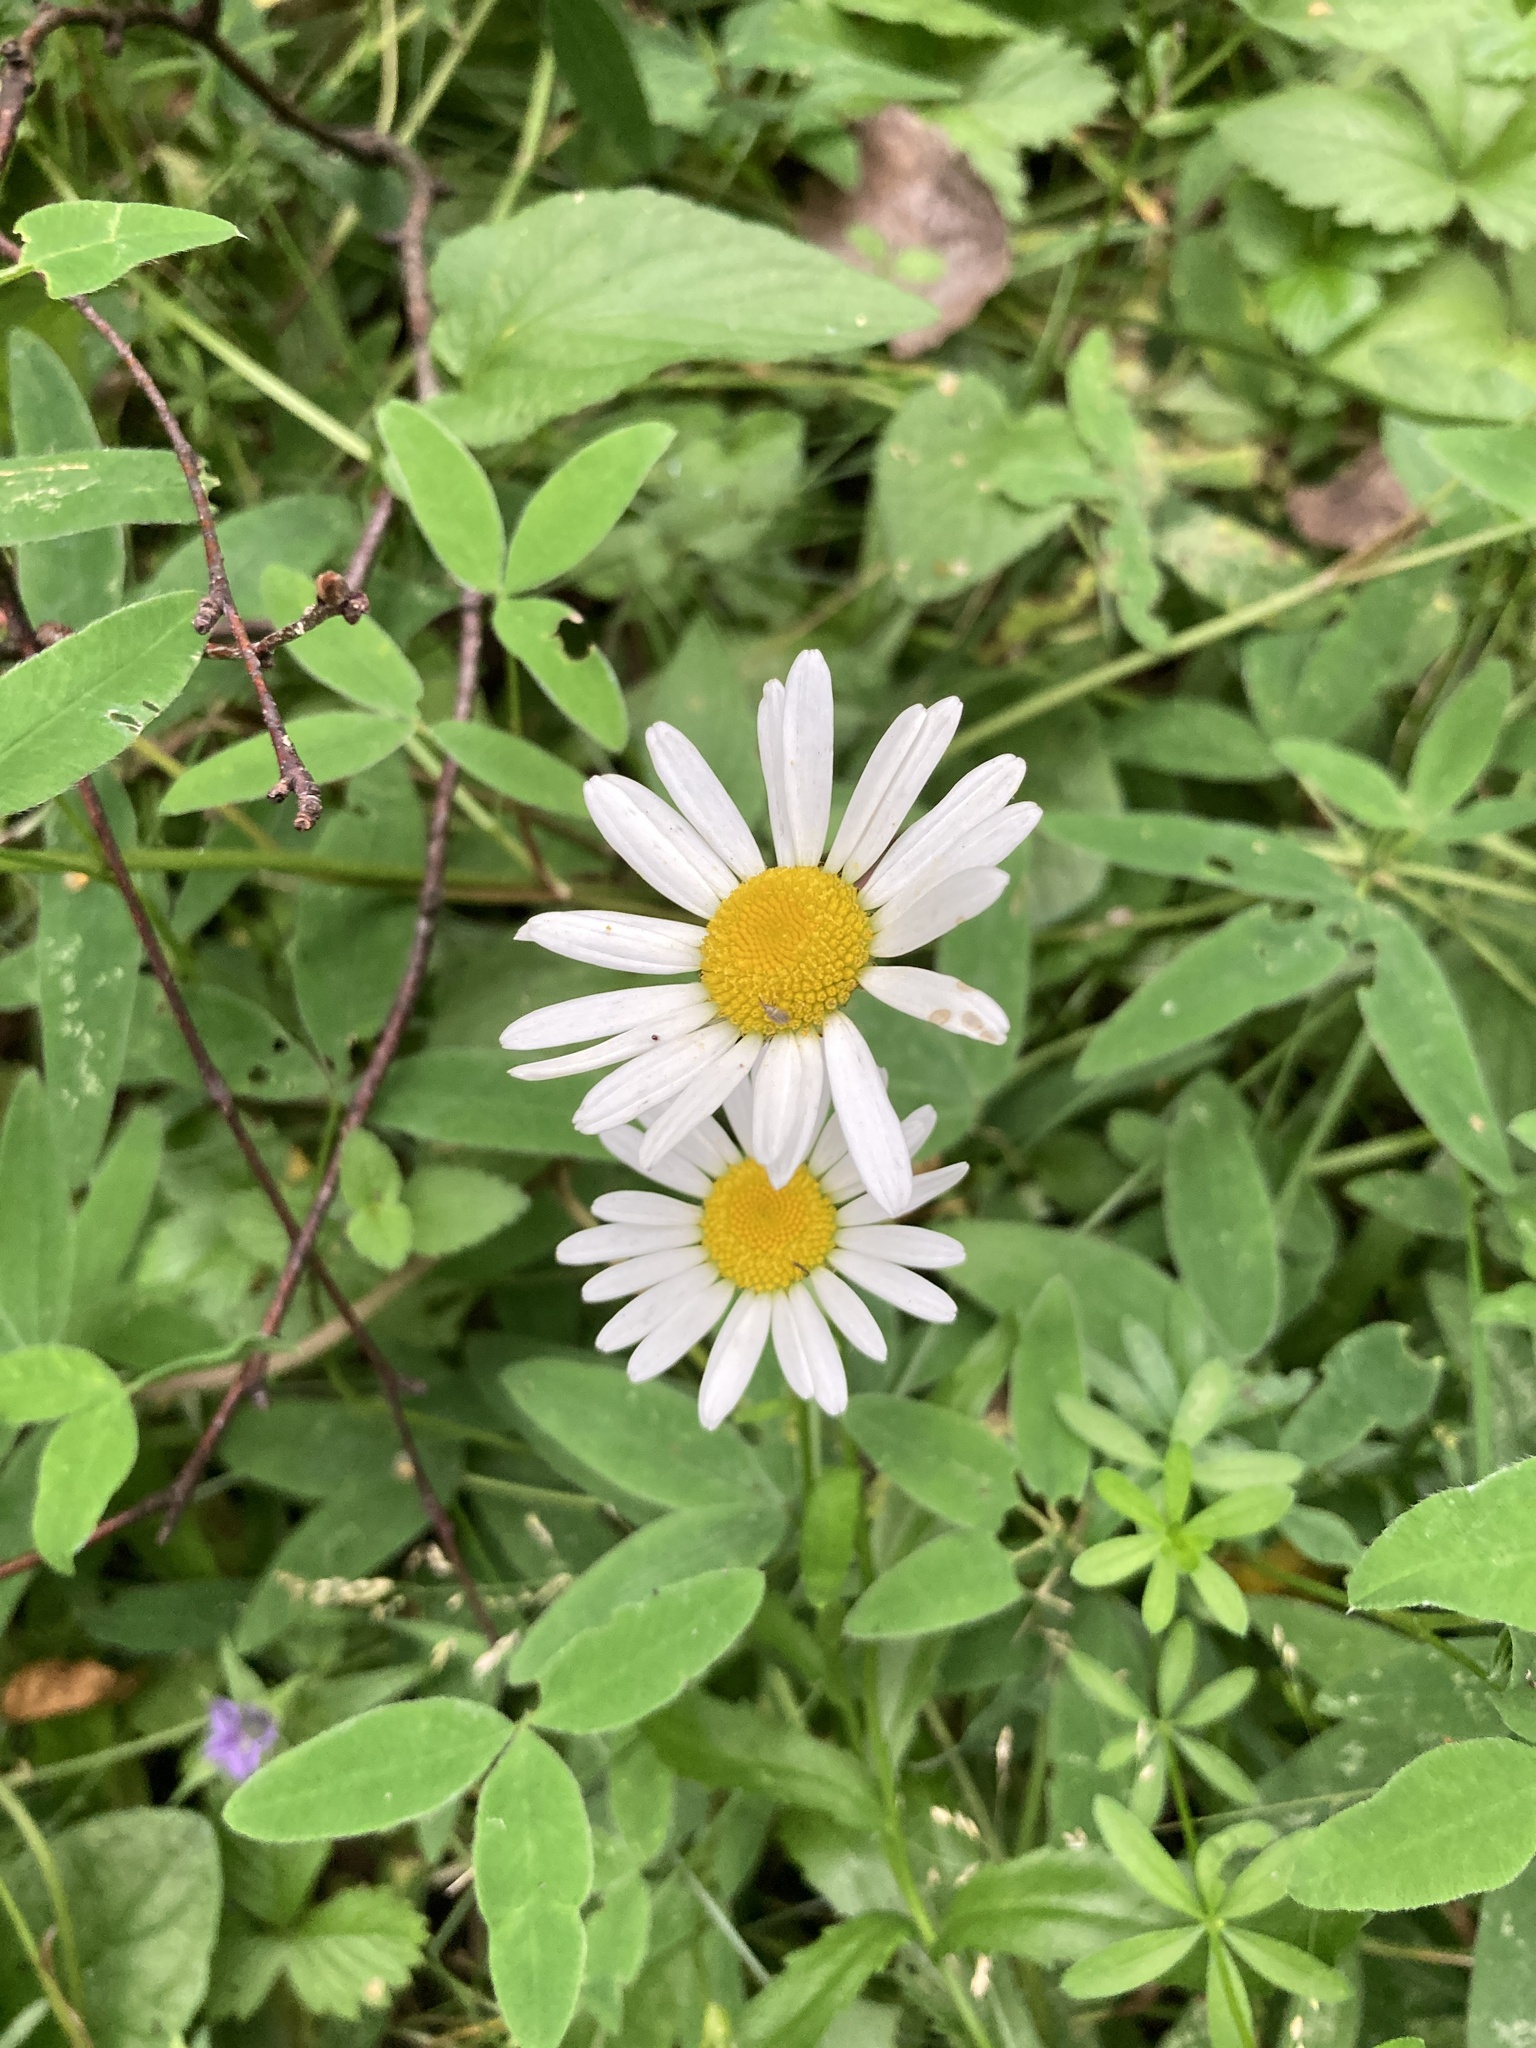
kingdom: Plantae
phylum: Tracheophyta
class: Magnoliopsida
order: Asterales
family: Asteraceae
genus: Leucanthemum
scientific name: Leucanthemum vulgare
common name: Oxeye daisy
